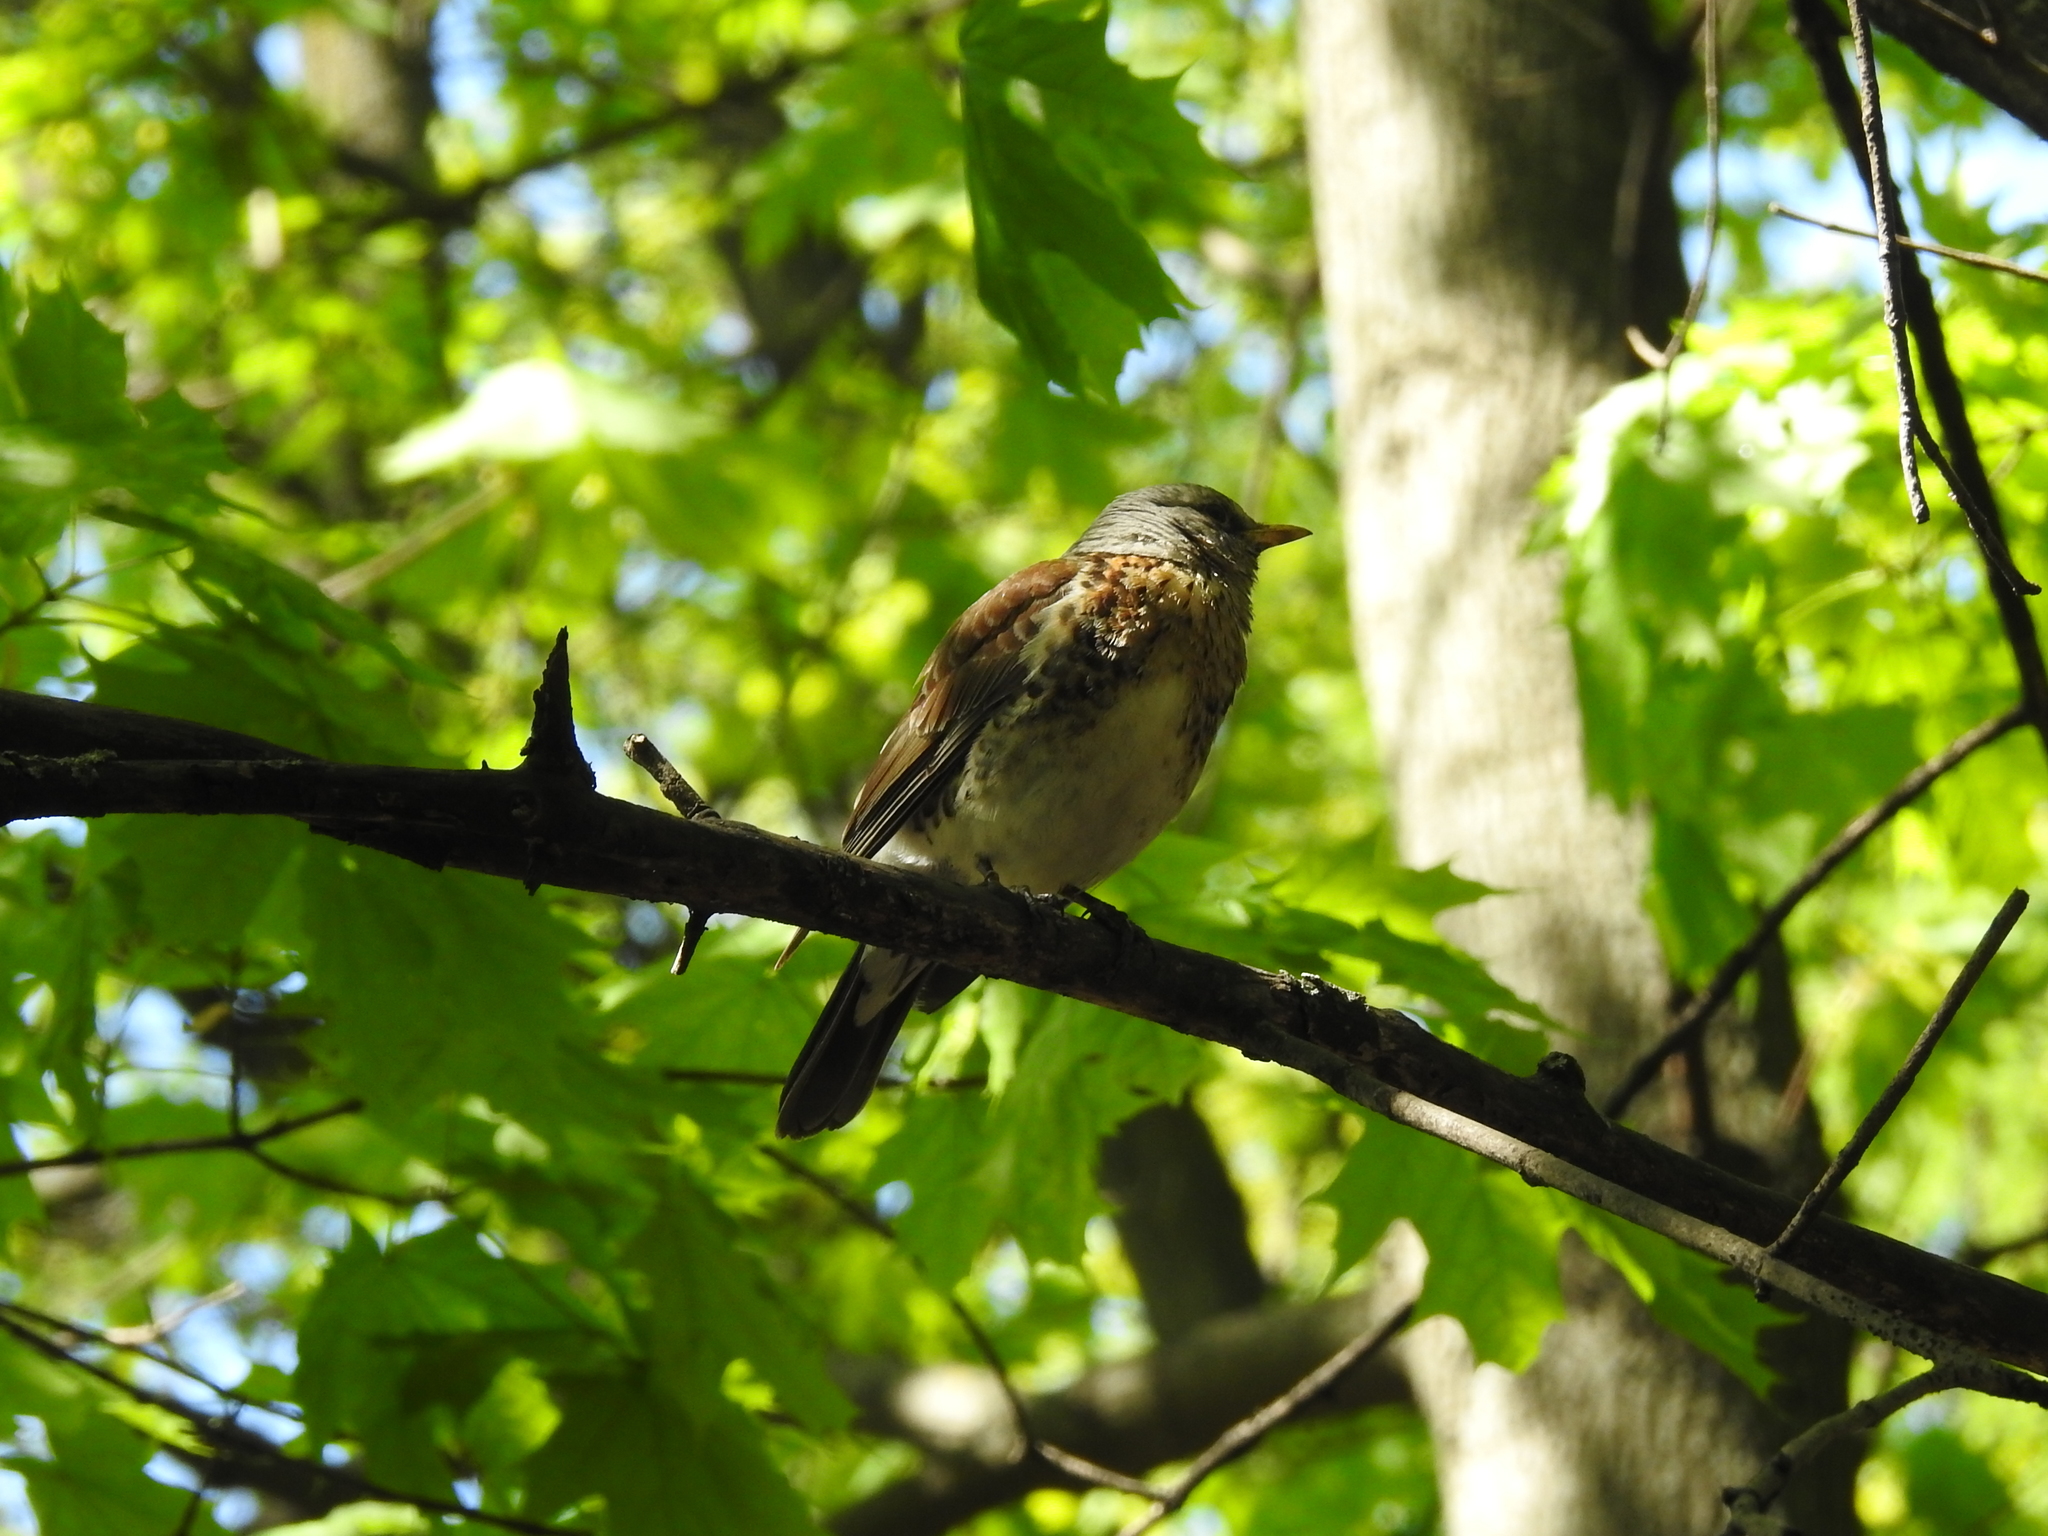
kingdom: Animalia
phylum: Chordata
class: Aves
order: Passeriformes
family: Turdidae
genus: Turdus
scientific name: Turdus pilaris
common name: Fieldfare
